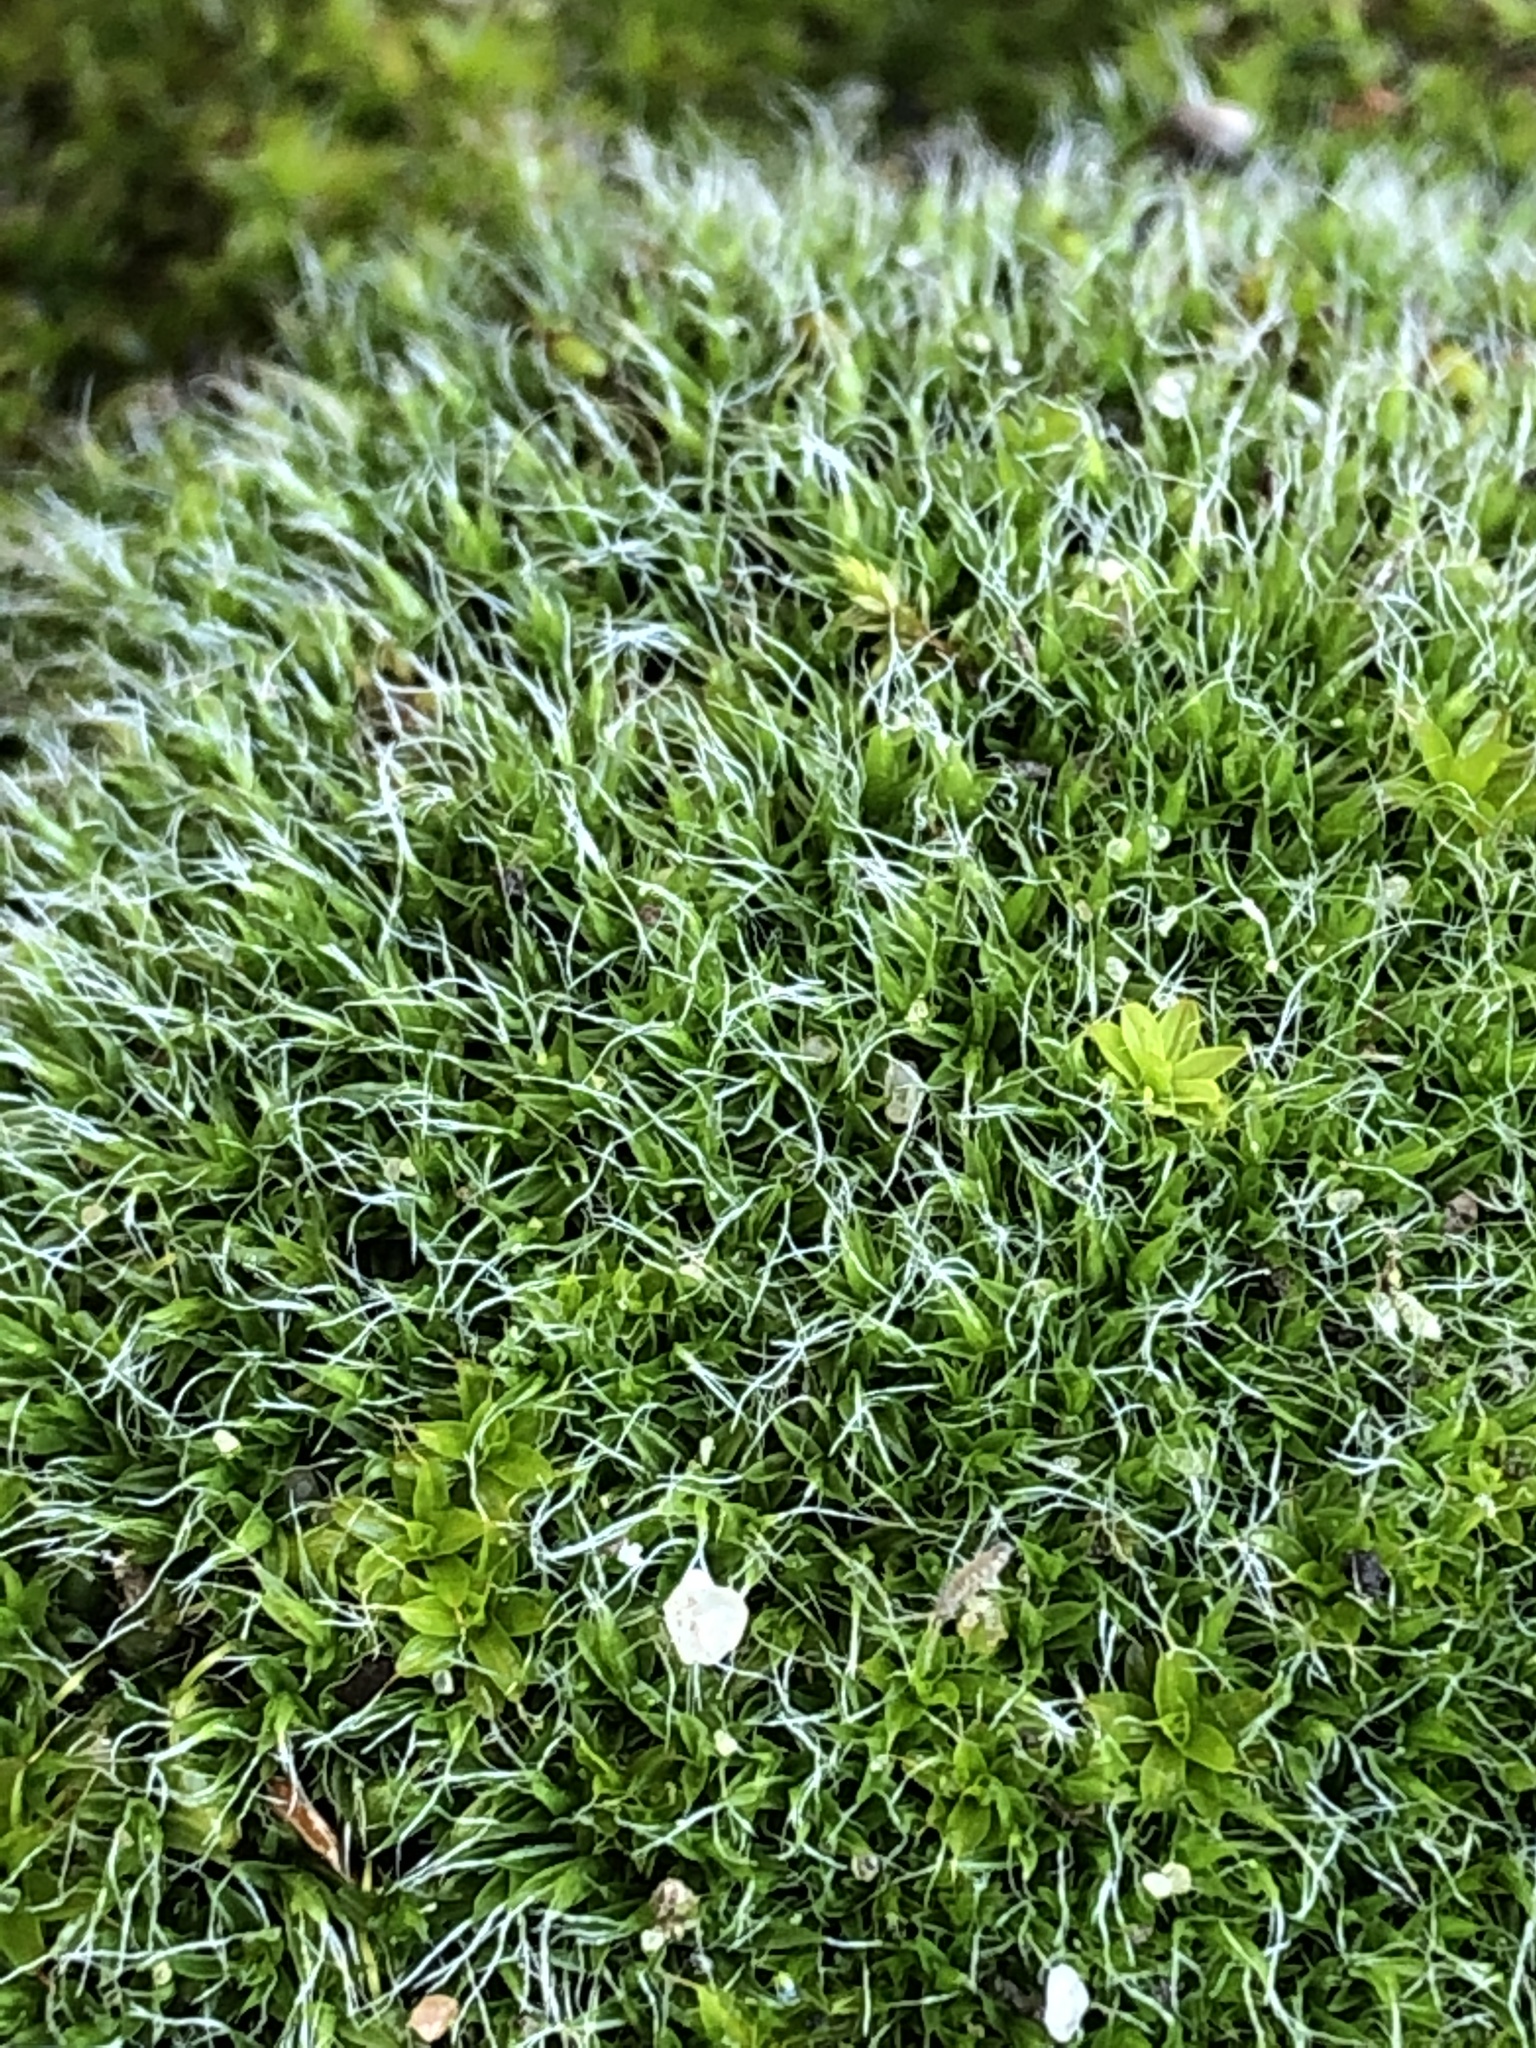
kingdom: Plantae
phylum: Bryophyta
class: Bryopsida
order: Grimmiales
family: Grimmiaceae
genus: Grimmia
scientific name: Grimmia pulvinata
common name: Grey-cushioned grimmia
